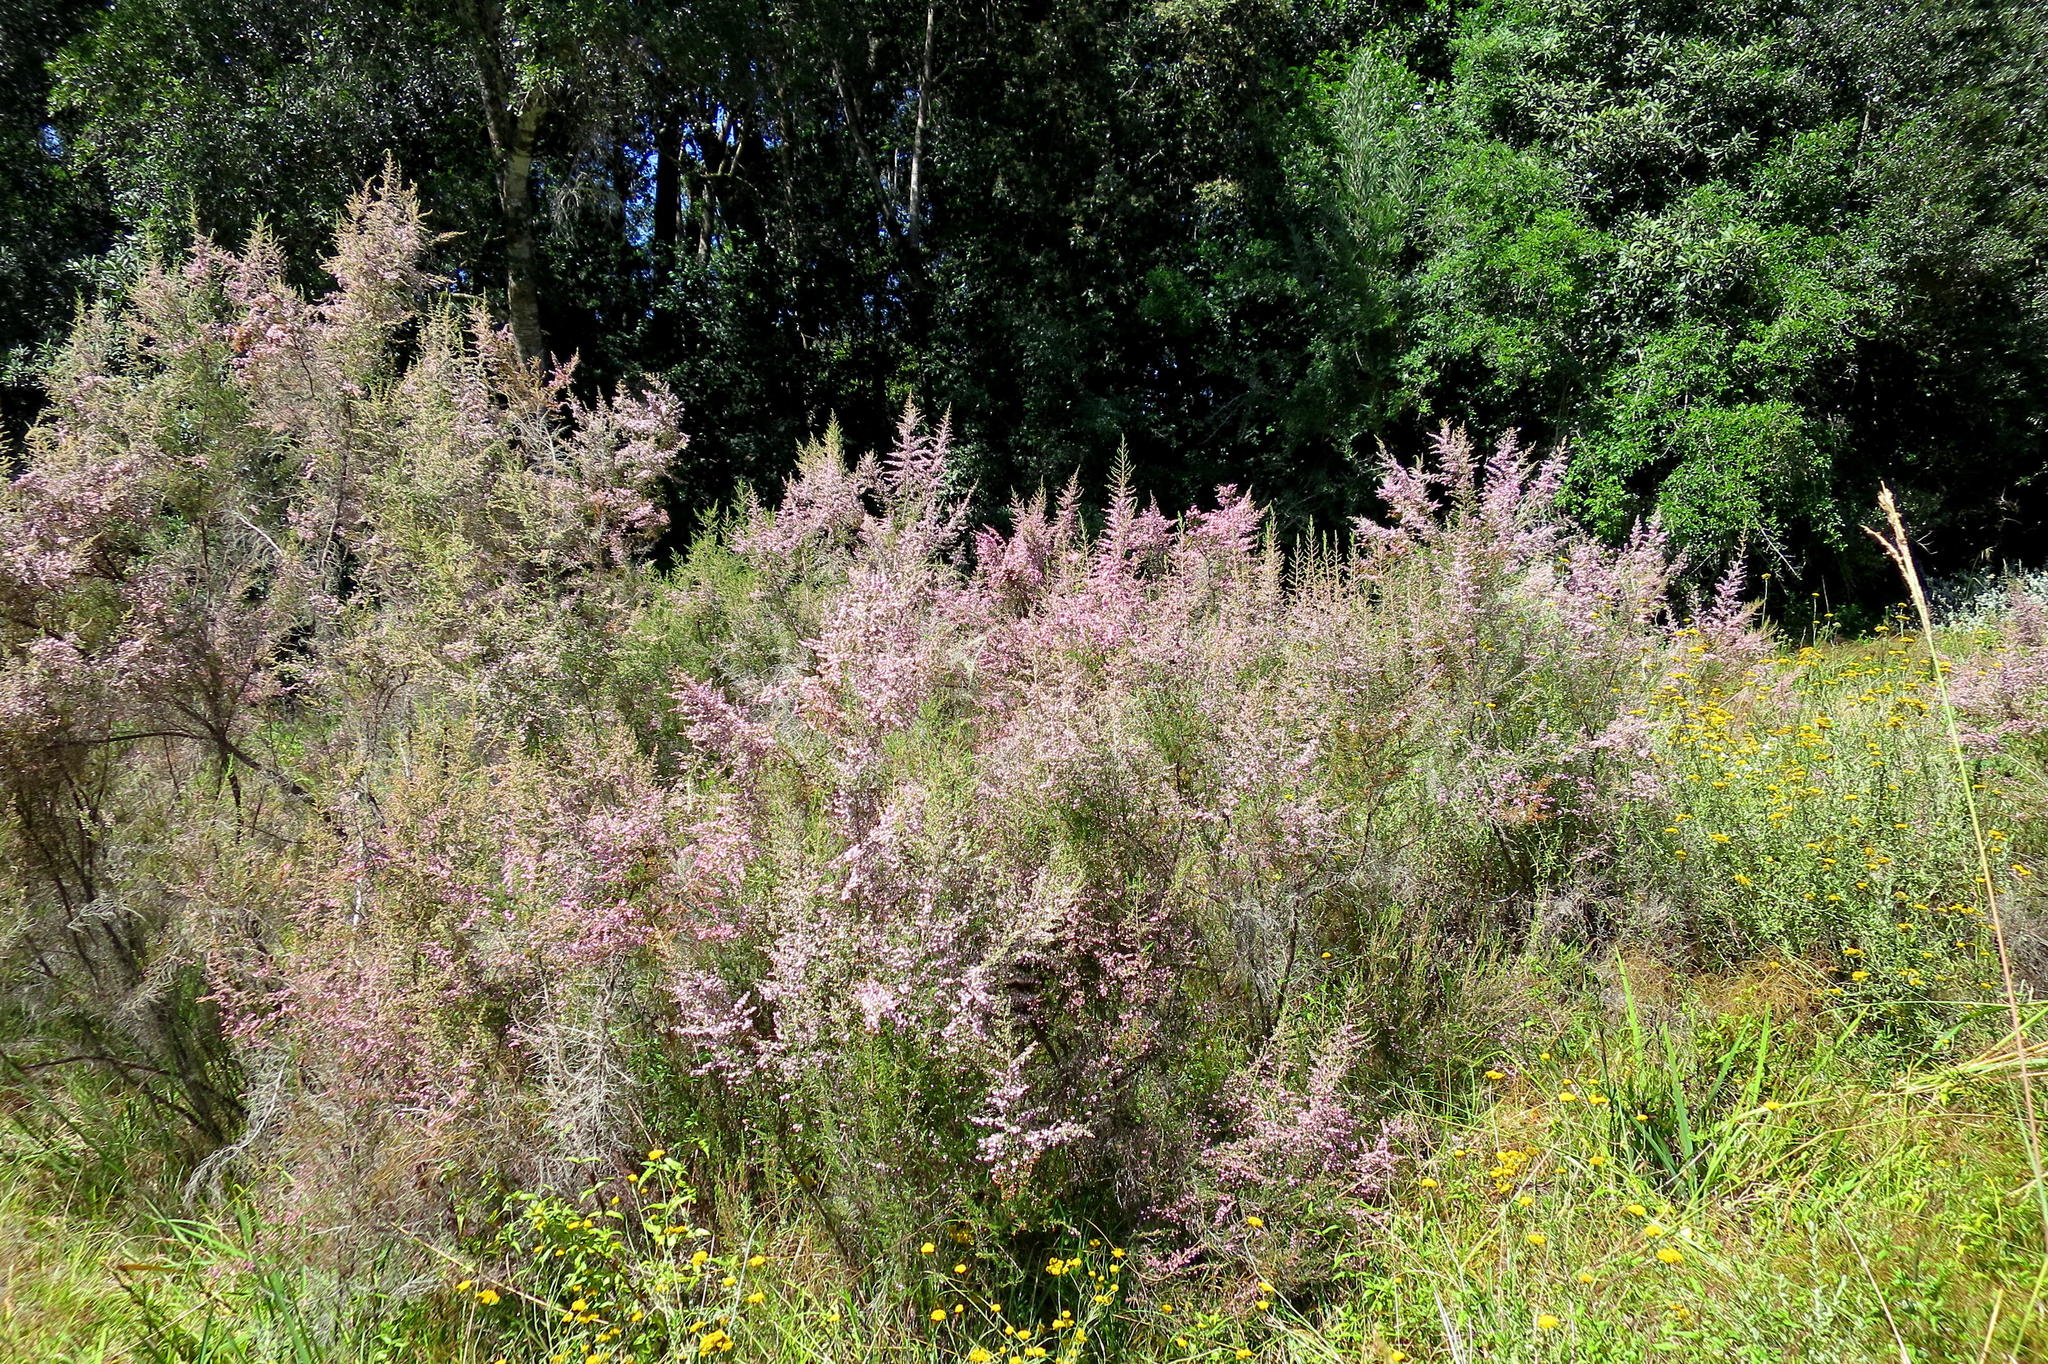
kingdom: Plantae
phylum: Tracheophyta
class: Magnoliopsida
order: Ericales
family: Ericaceae
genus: Erica
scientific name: Erica sparsa
